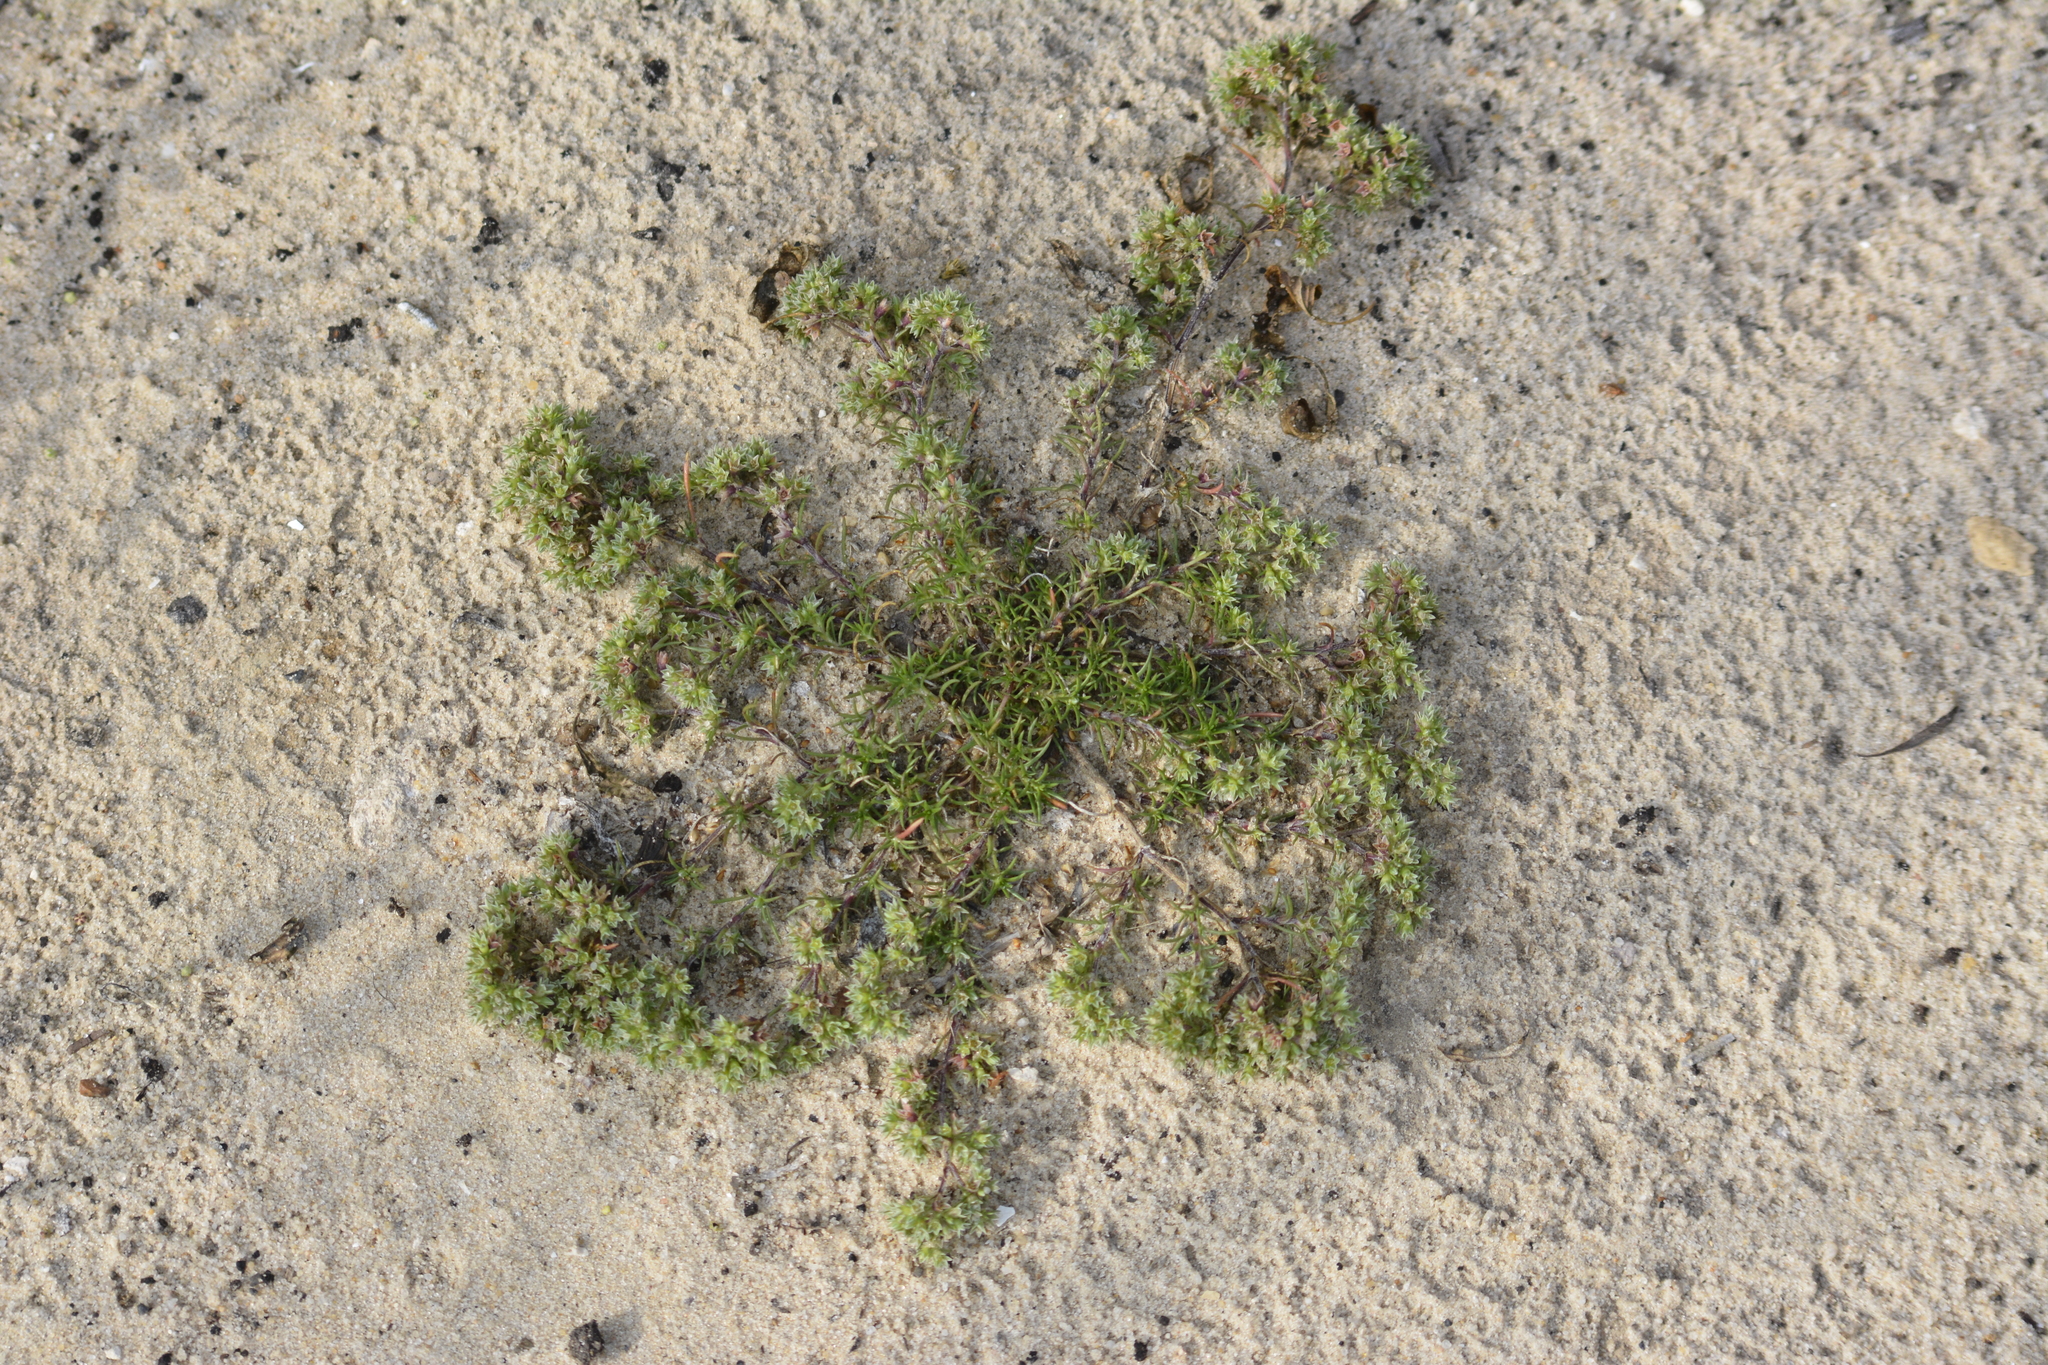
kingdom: Plantae
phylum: Tracheophyta
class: Magnoliopsida
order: Caryophyllales
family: Caryophyllaceae
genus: Scleranthus
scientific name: Scleranthus annuus
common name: Annual knawel
